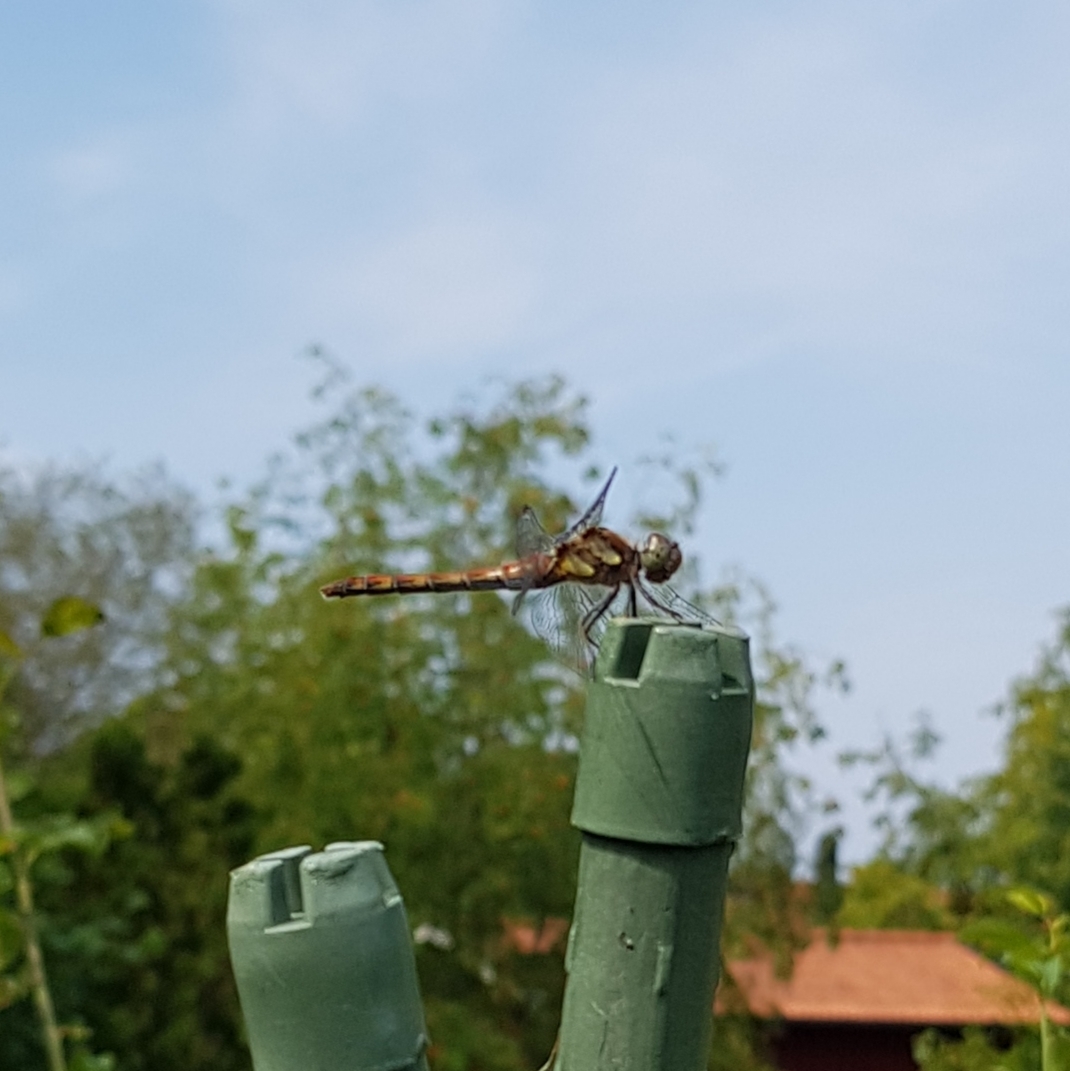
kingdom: Animalia
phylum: Arthropoda
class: Insecta
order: Odonata
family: Libellulidae
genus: Sympetrum
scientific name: Sympetrum striolatum
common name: Common darter
